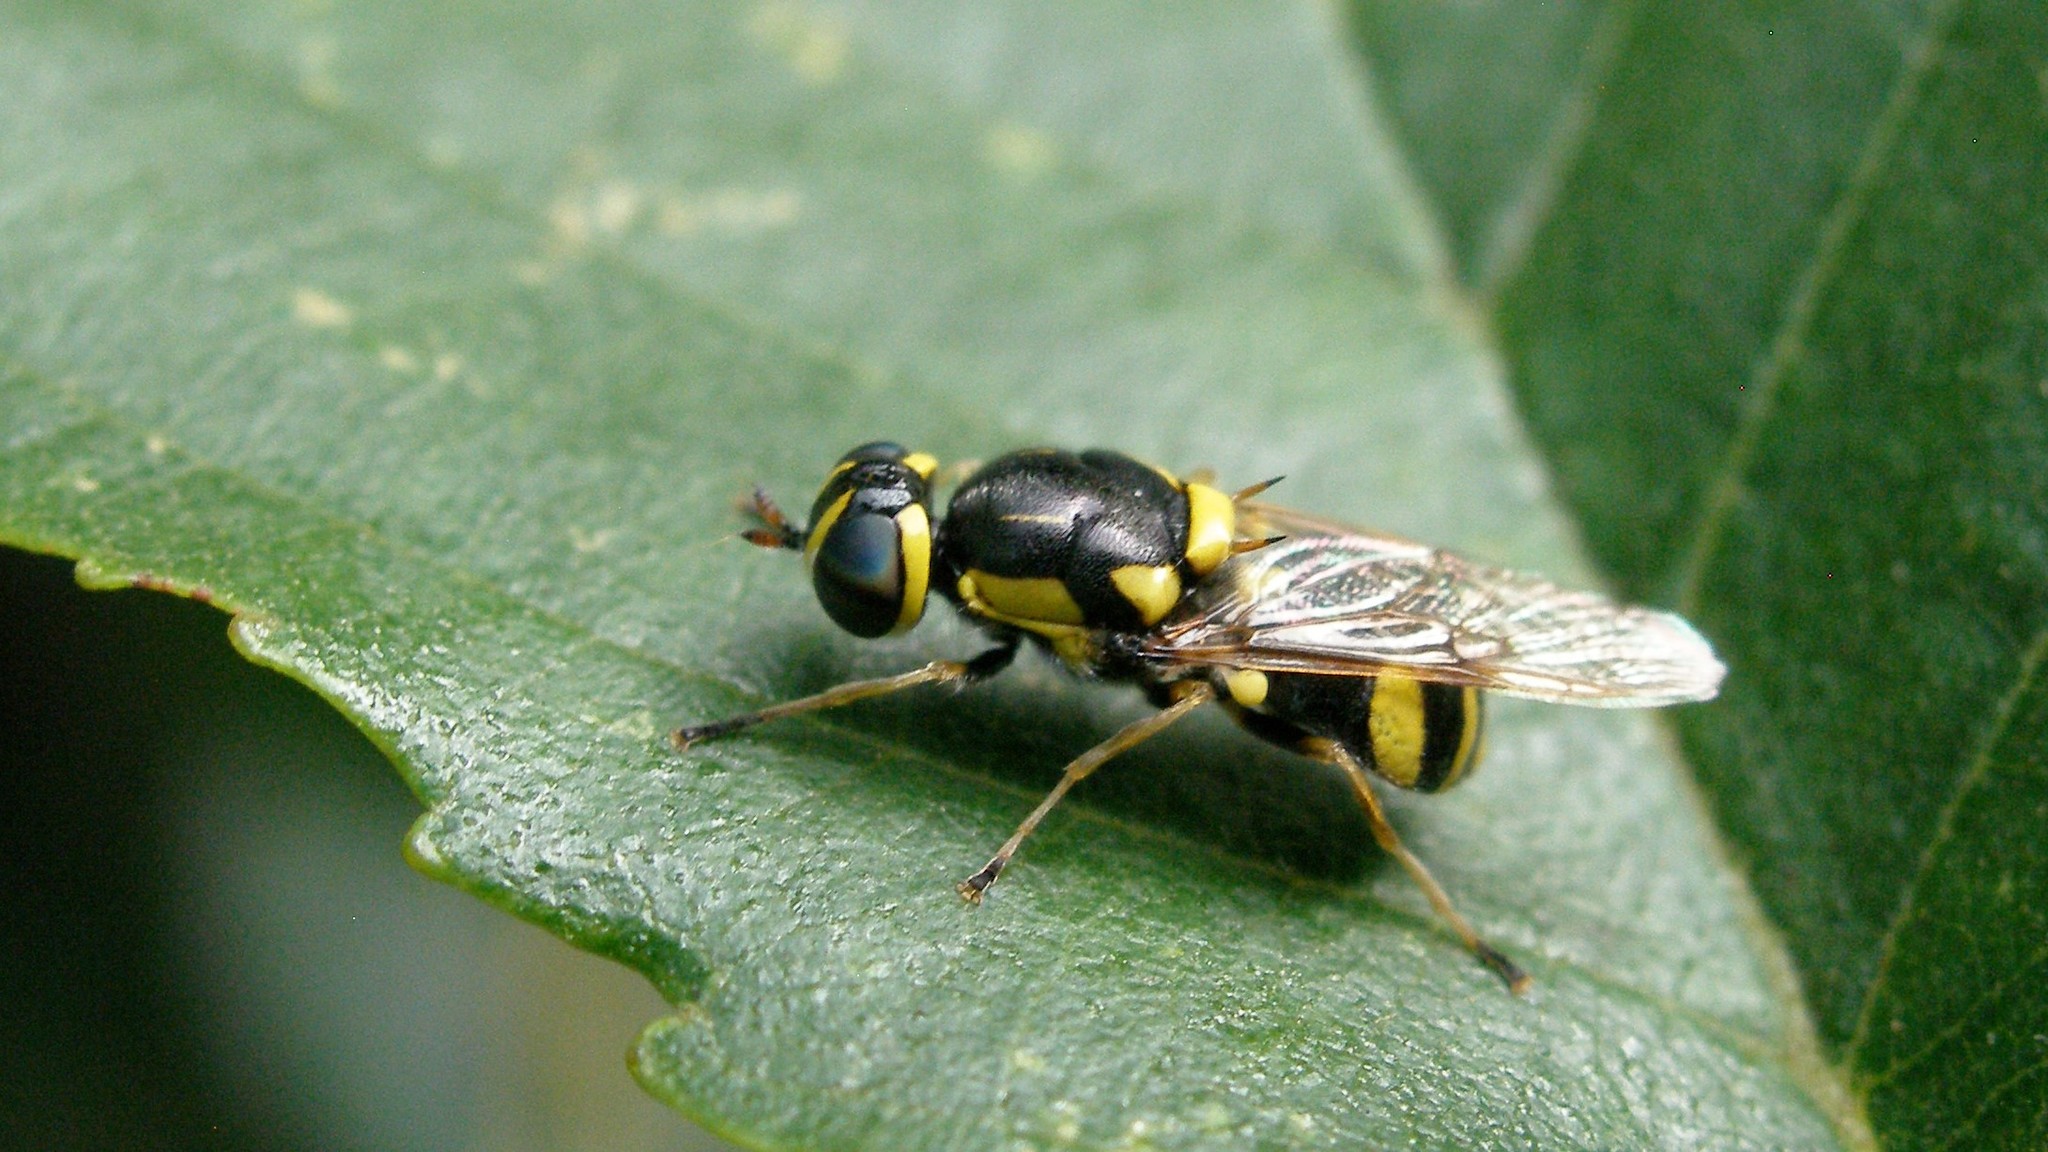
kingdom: Animalia
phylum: Arthropoda
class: Insecta
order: Diptera
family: Stratiomyidae
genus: Oxycera
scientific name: Oxycera rara
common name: Four-barred major
